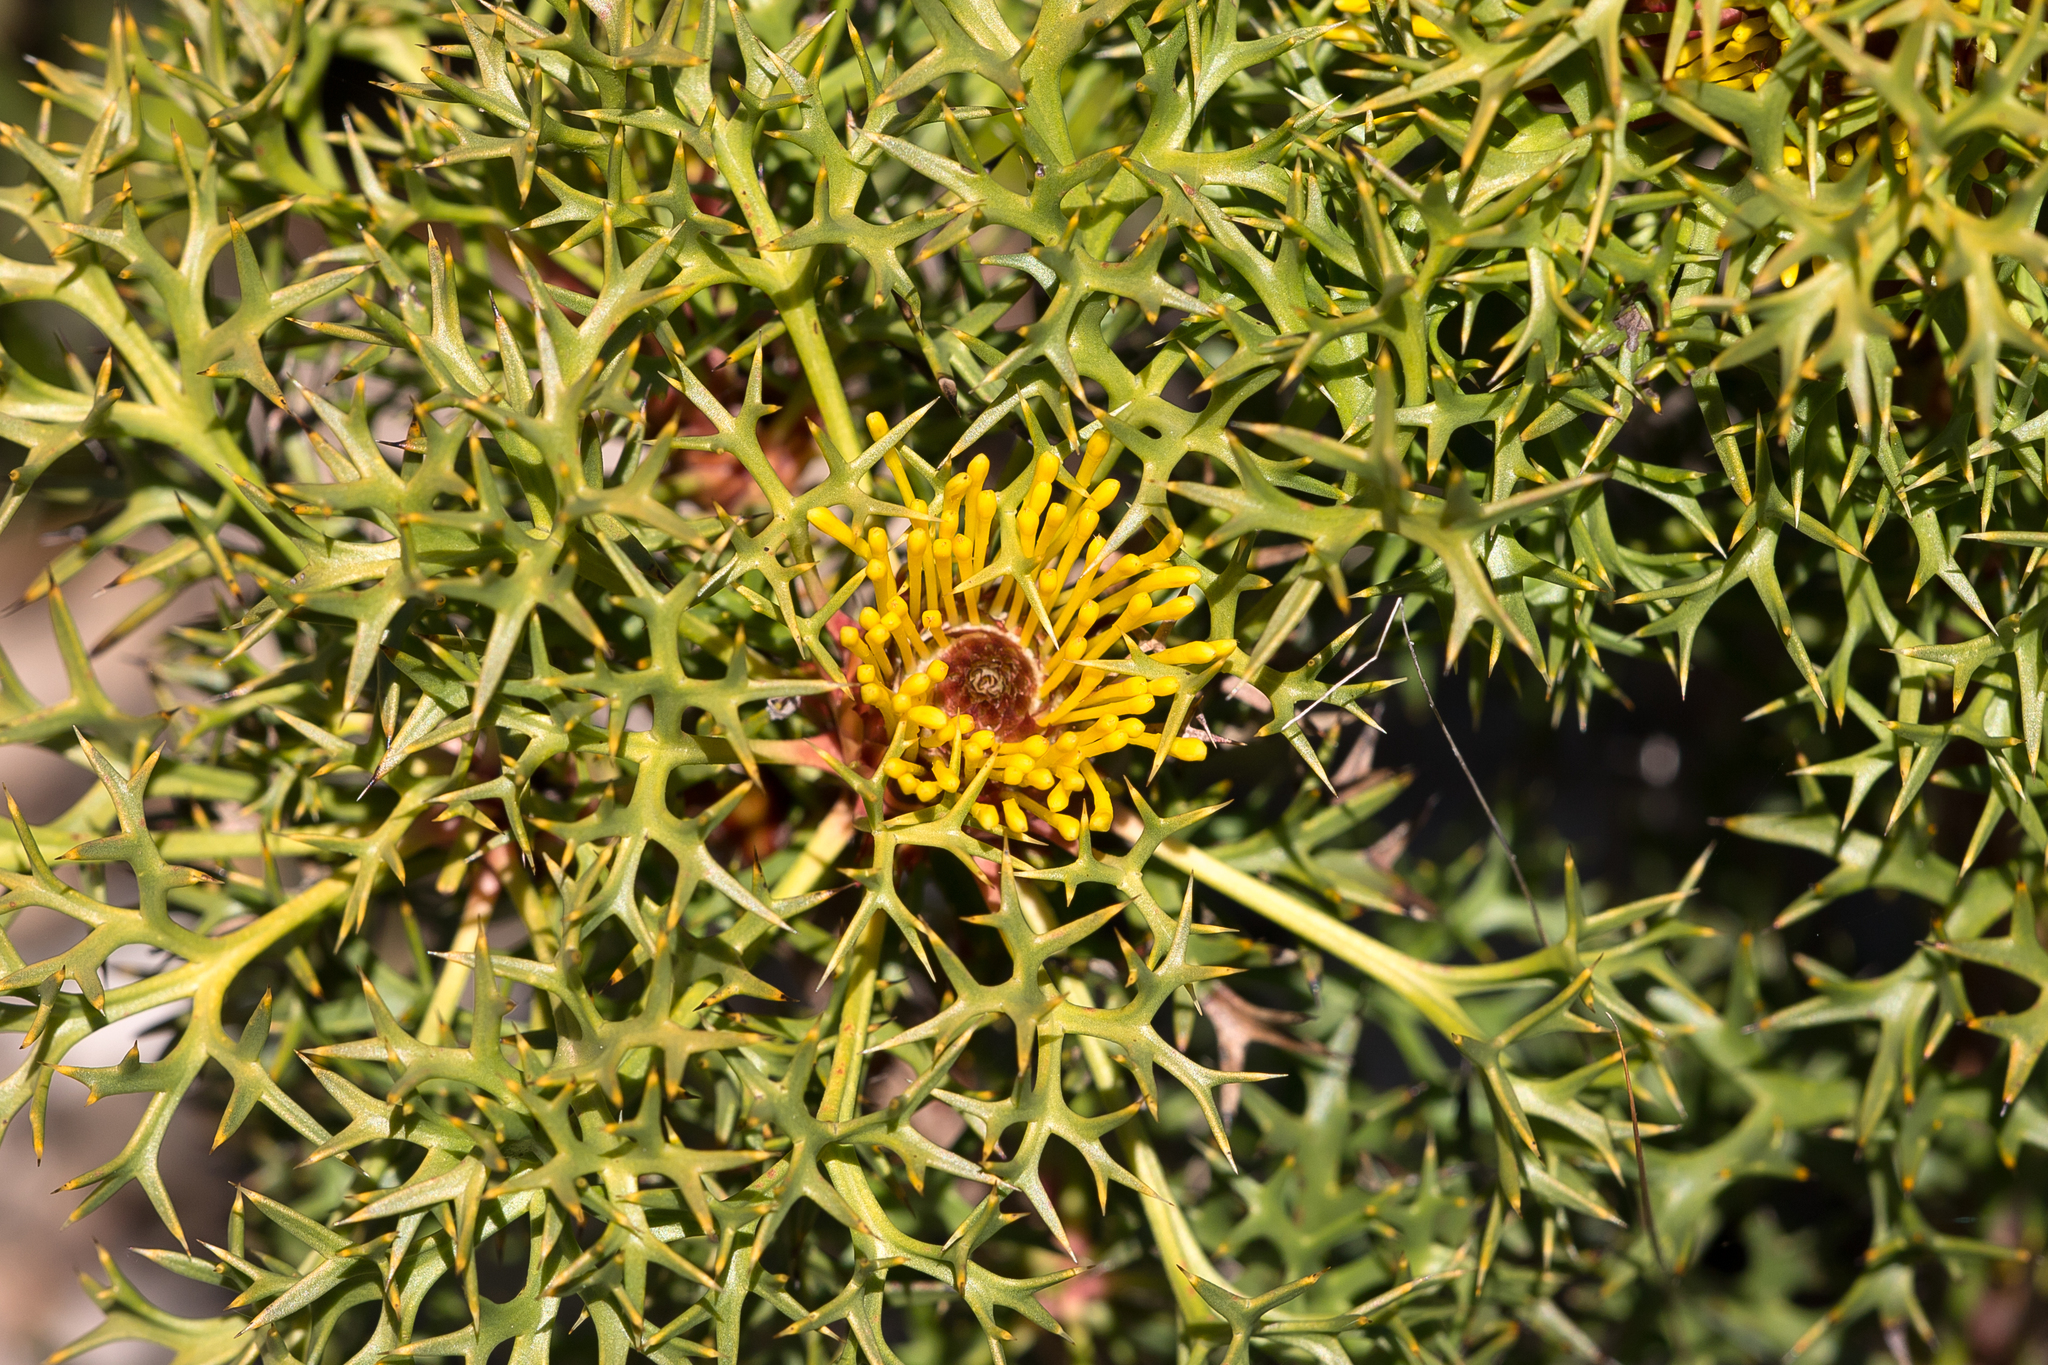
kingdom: Plantae
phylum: Tracheophyta
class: Magnoliopsida
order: Proteales
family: Proteaceae
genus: Isopogon
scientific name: Isopogon ceratophyllus
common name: Horny cone-bush
